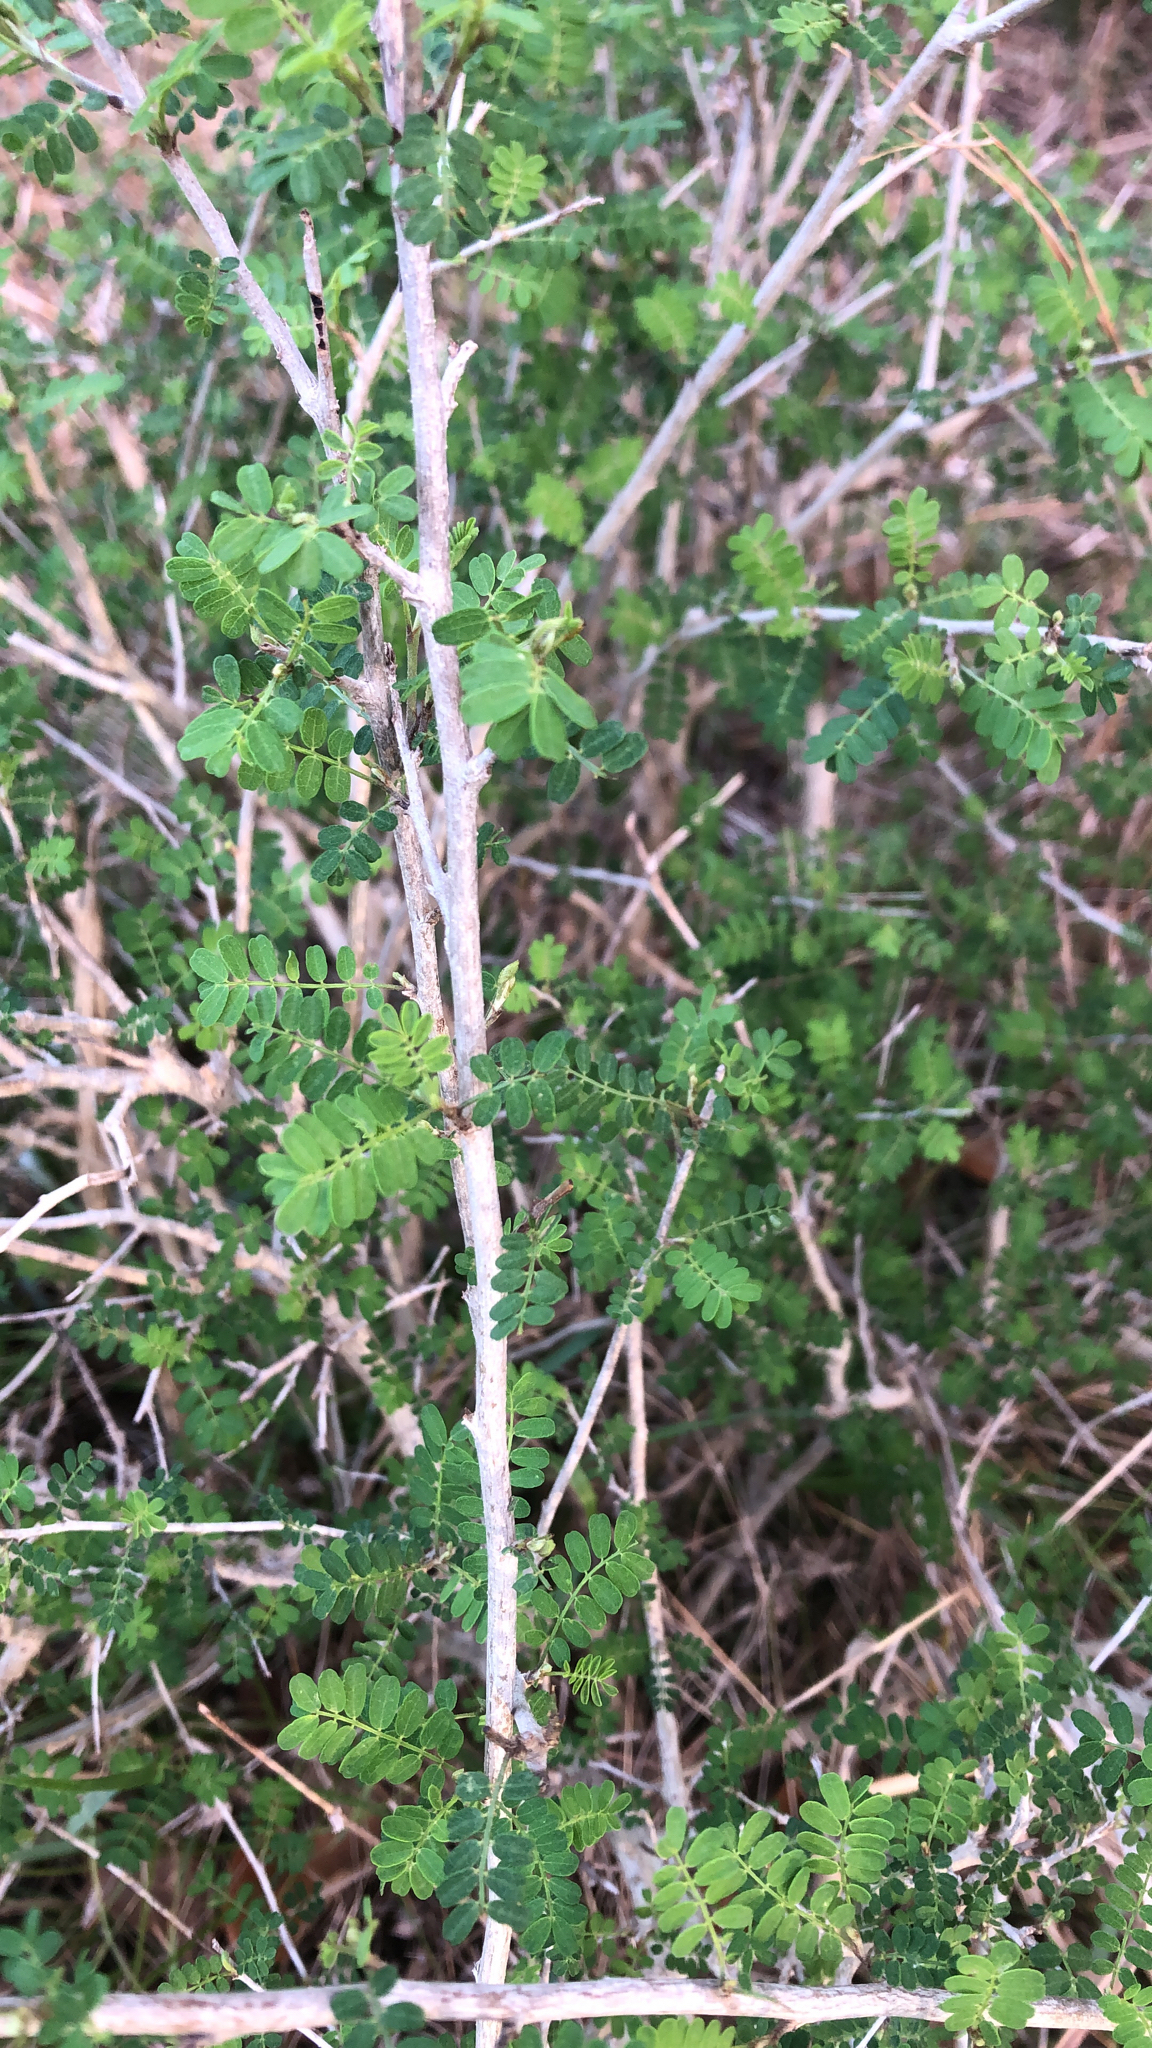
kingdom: Plantae
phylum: Tracheophyta
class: Magnoliopsida
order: Fabales
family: Fabaceae
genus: Eysenhardtia
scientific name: Eysenhardtia texana
